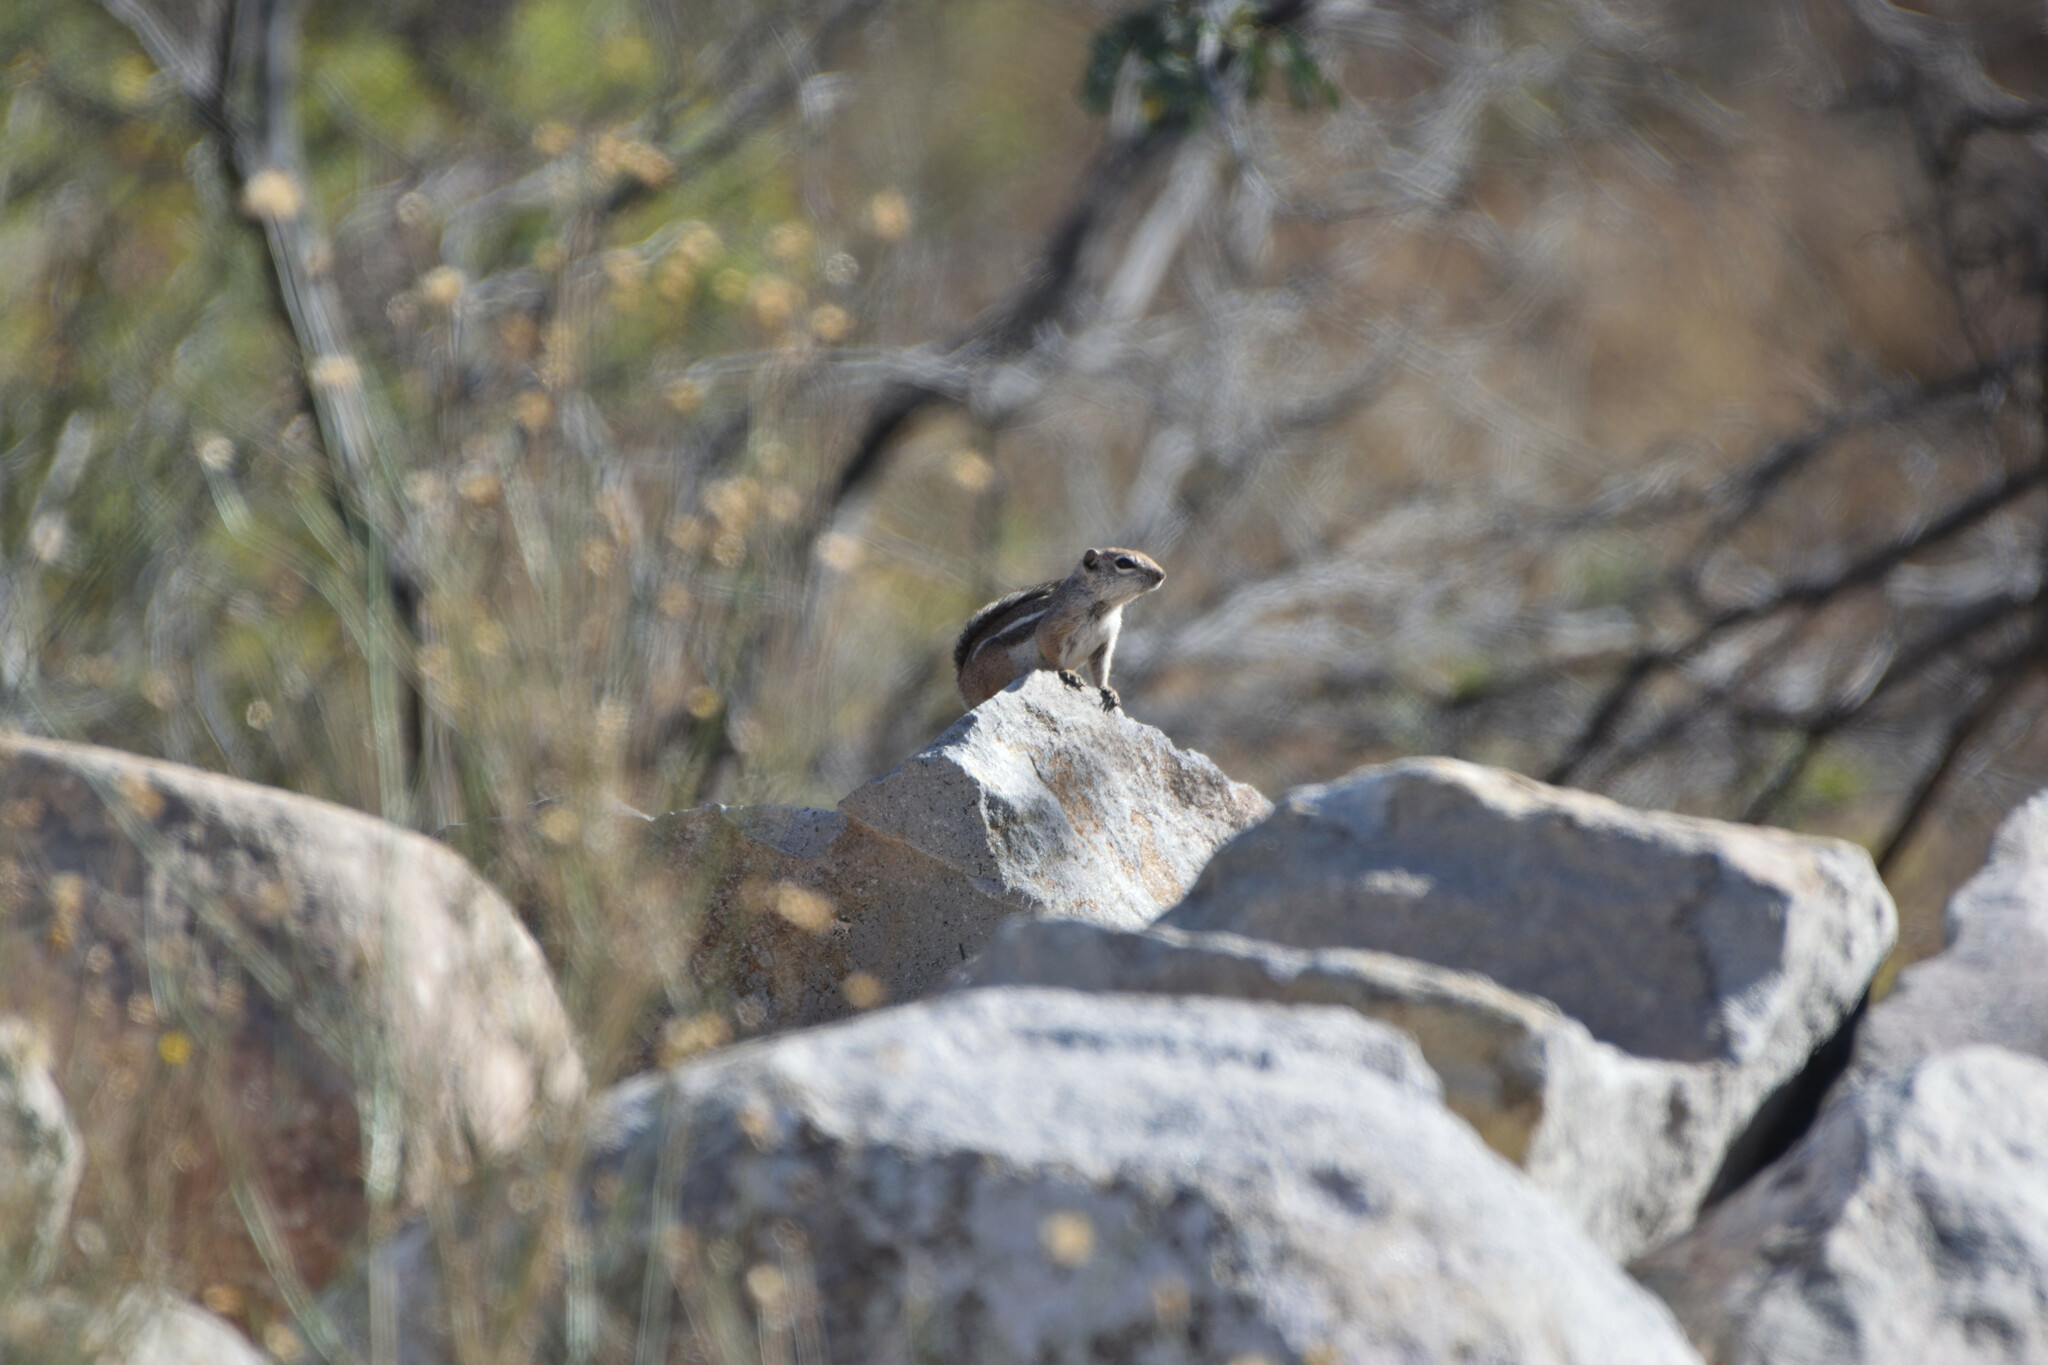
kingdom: Animalia
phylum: Chordata
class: Mammalia
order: Rodentia
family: Sciuridae
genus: Ammospermophilus
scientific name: Ammospermophilus leucurus
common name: White-tailed antelope squirrel
